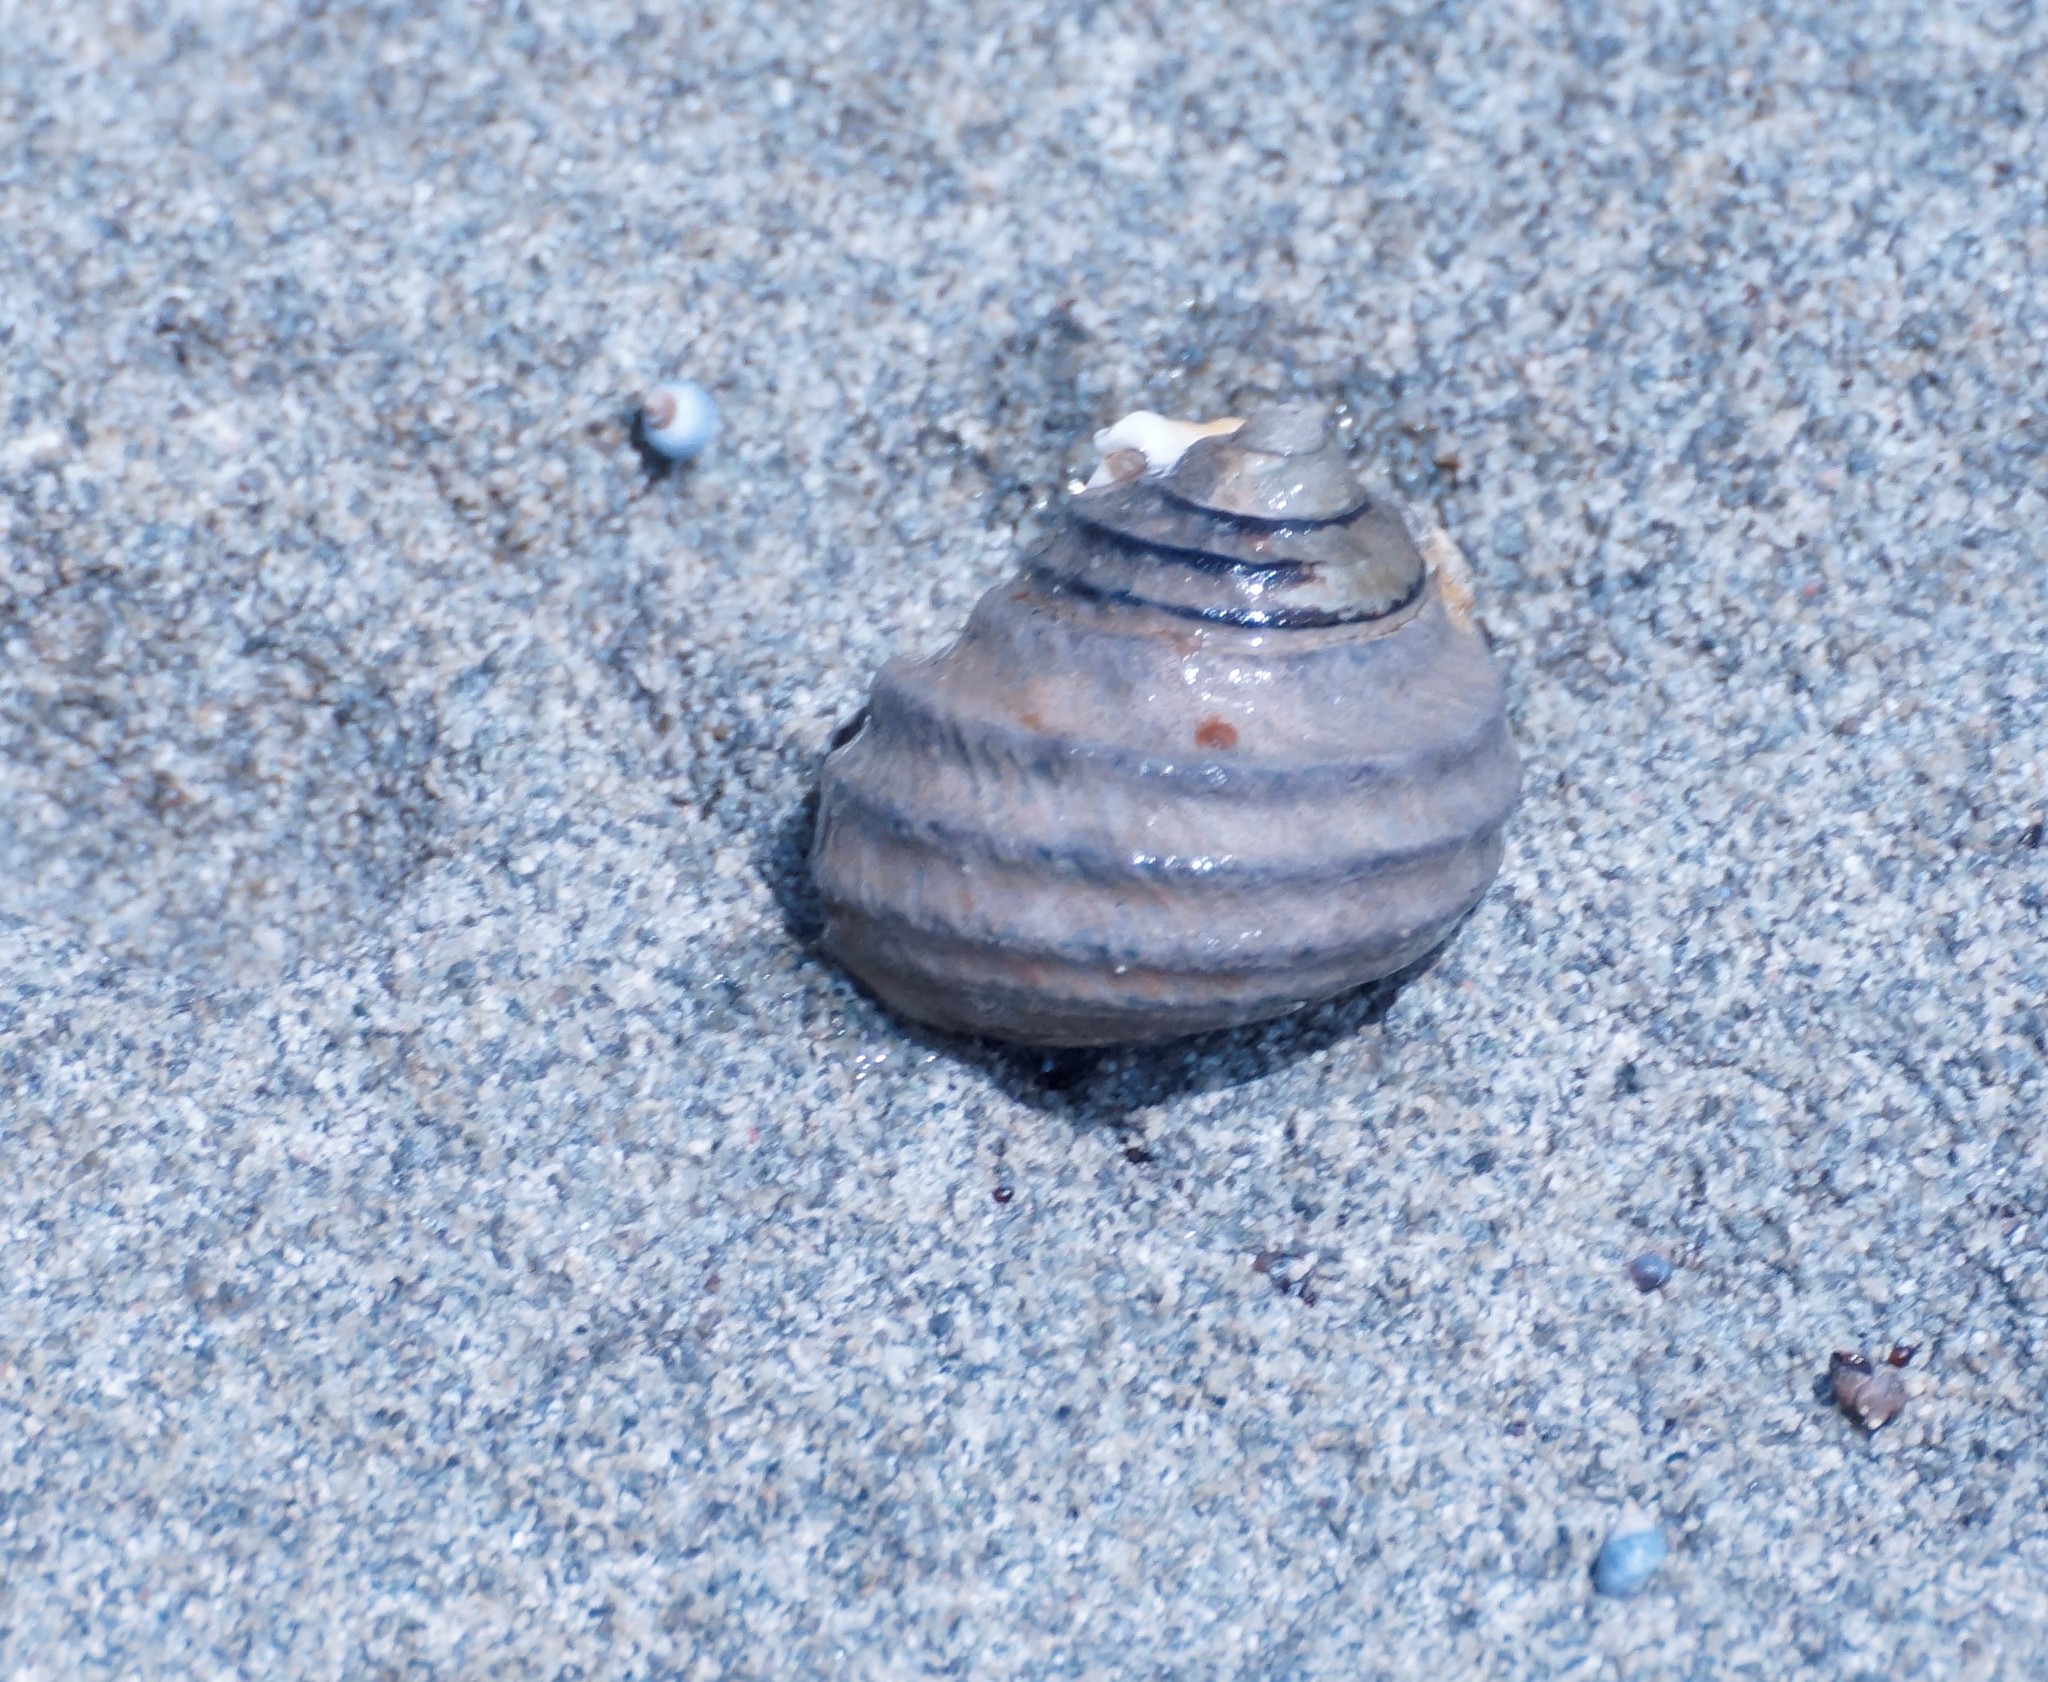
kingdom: Animalia
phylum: Mollusca
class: Gastropoda
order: Trochida
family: Trochidae
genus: Austrocochlea
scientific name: Austrocochlea constricta
